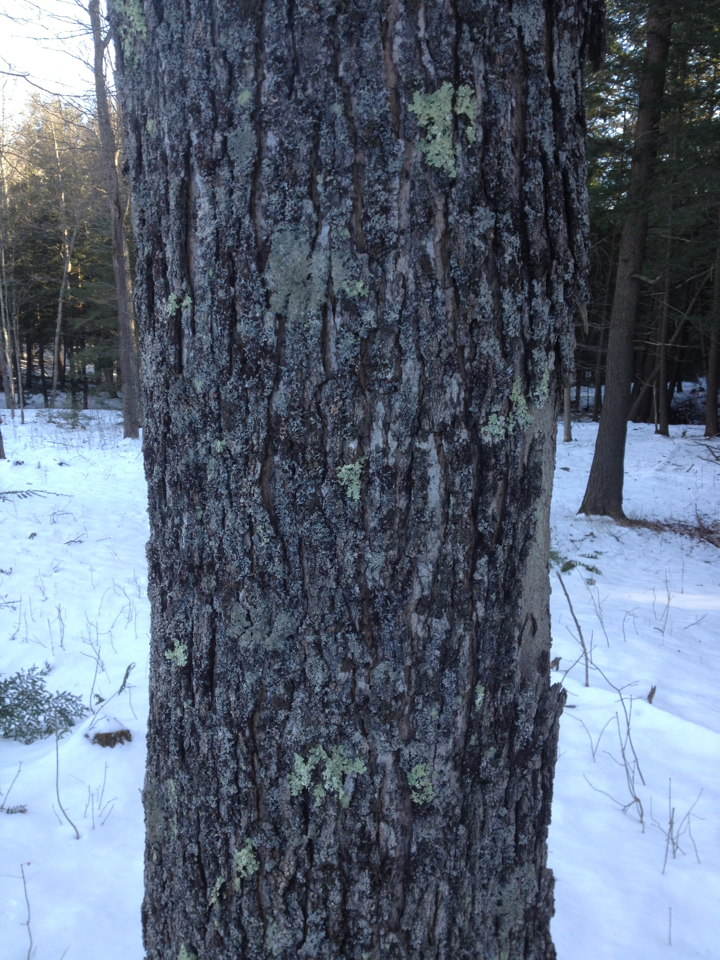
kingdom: Plantae
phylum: Tracheophyta
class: Magnoliopsida
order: Sapindales
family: Sapindaceae
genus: Acer
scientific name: Acer saccharum
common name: Sugar maple
